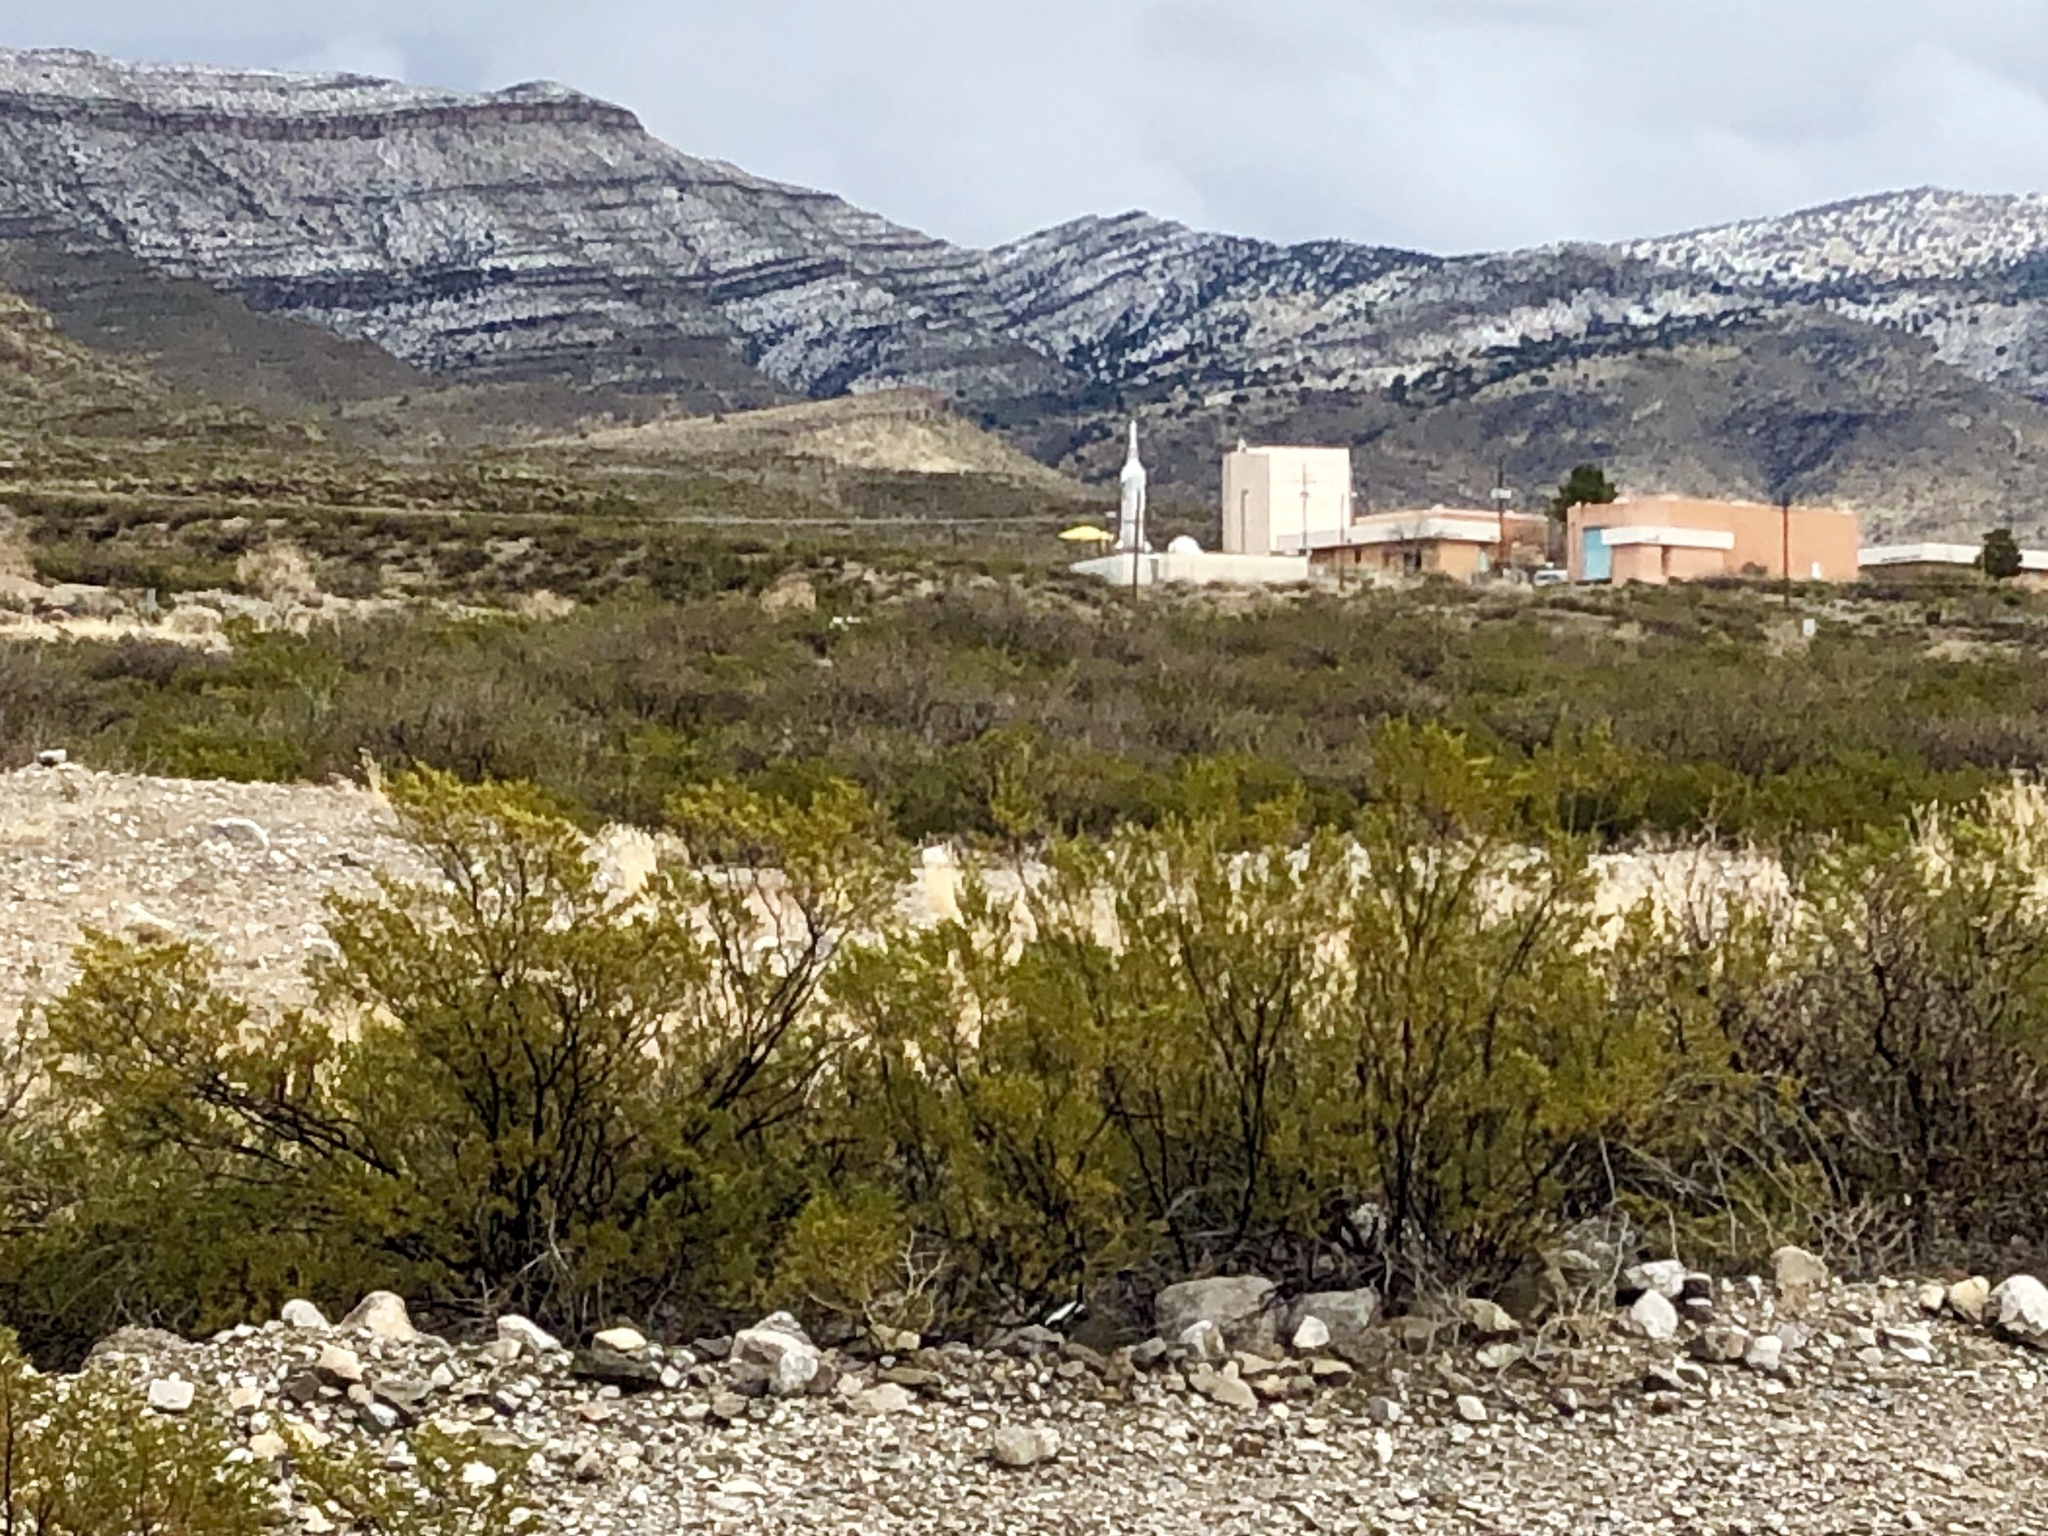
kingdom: Plantae
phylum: Tracheophyta
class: Magnoliopsida
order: Zygophyllales
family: Zygophyllaceae
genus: Larrea
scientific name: Larrea tridentata
